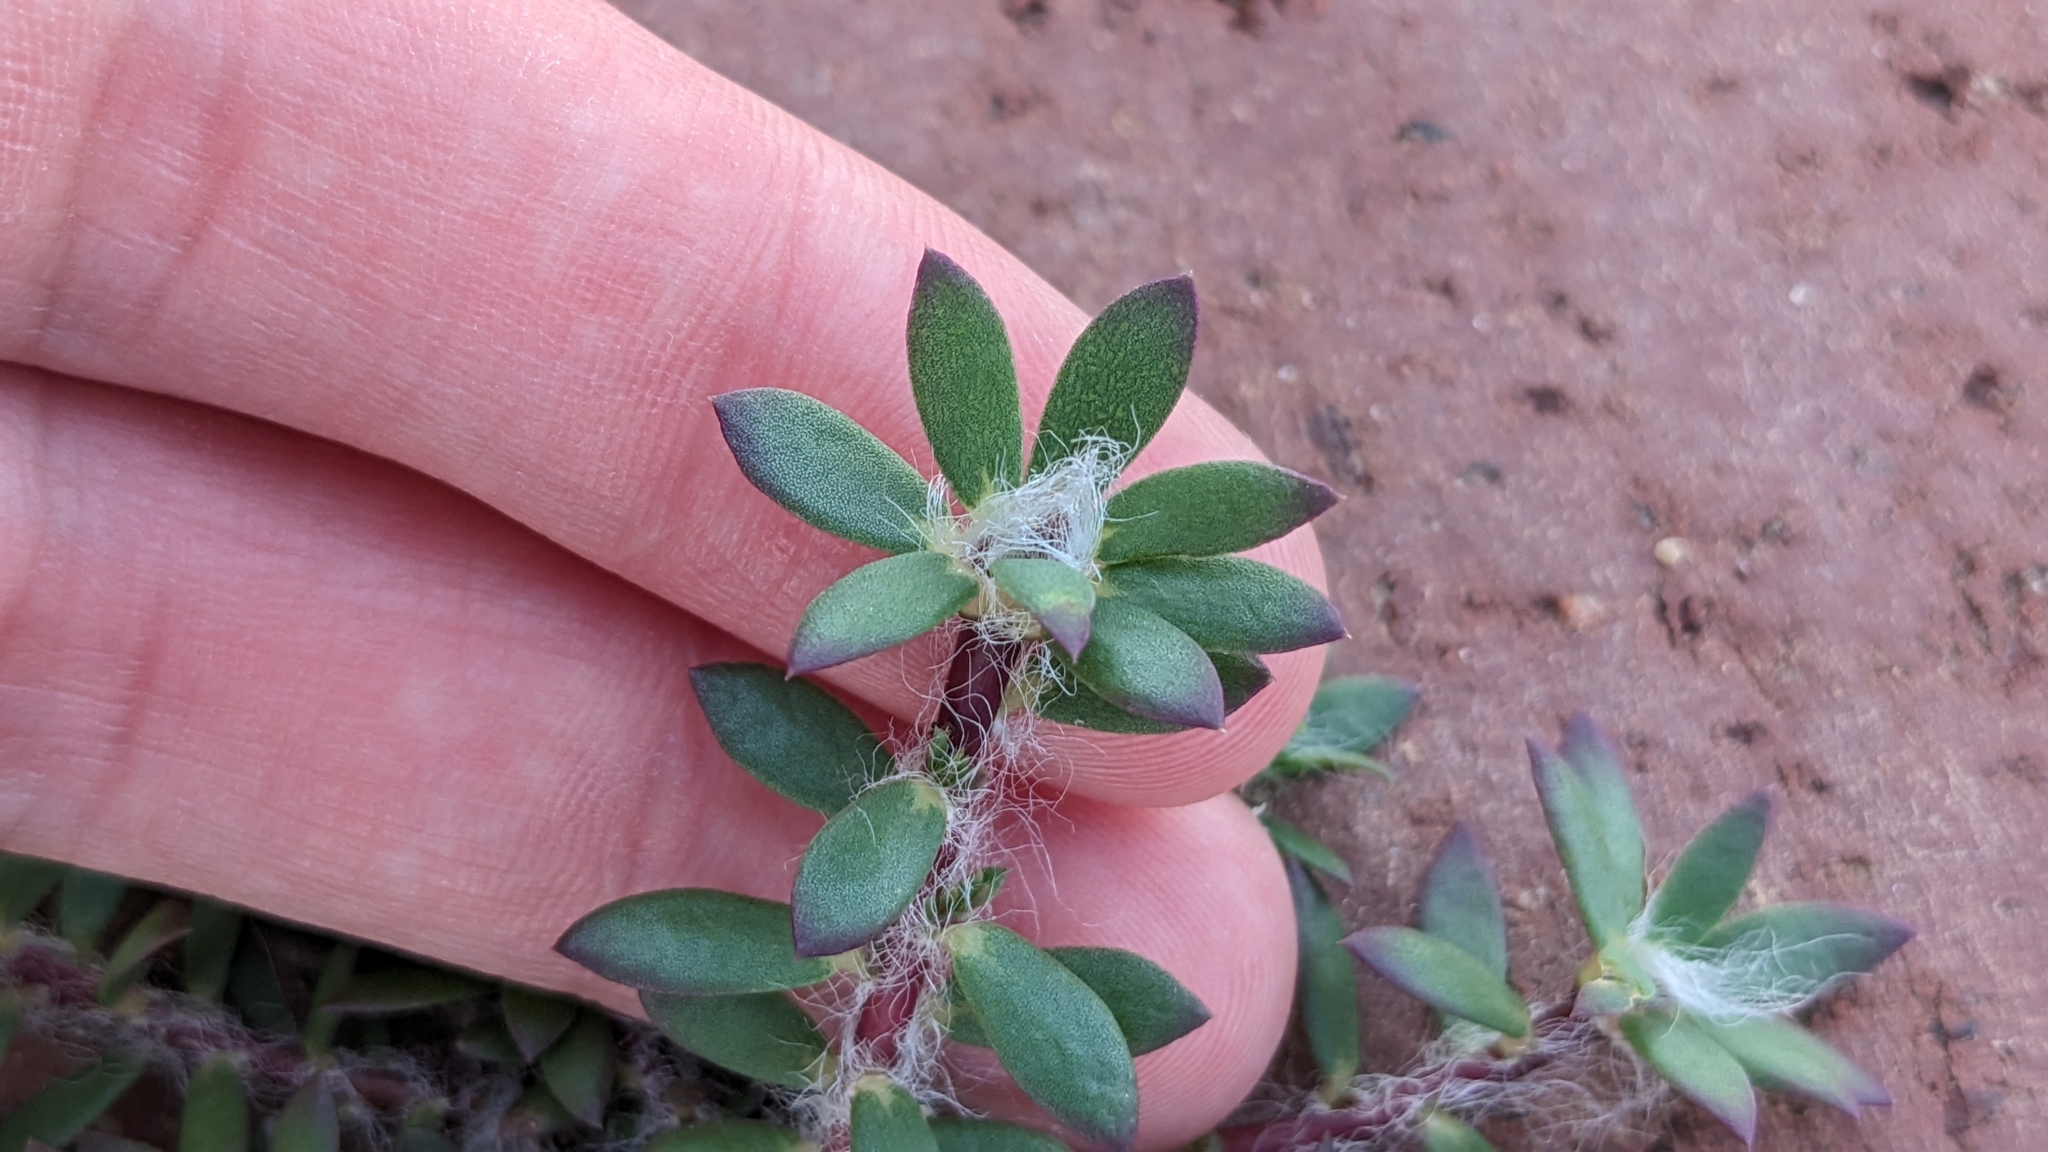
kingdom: Plantae
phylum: Tracheophyta
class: Magnoliopsida
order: Caryophyllales
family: Portulacaceae
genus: Portulaca
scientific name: Portulaca amilis
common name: Paraguayan purslane
